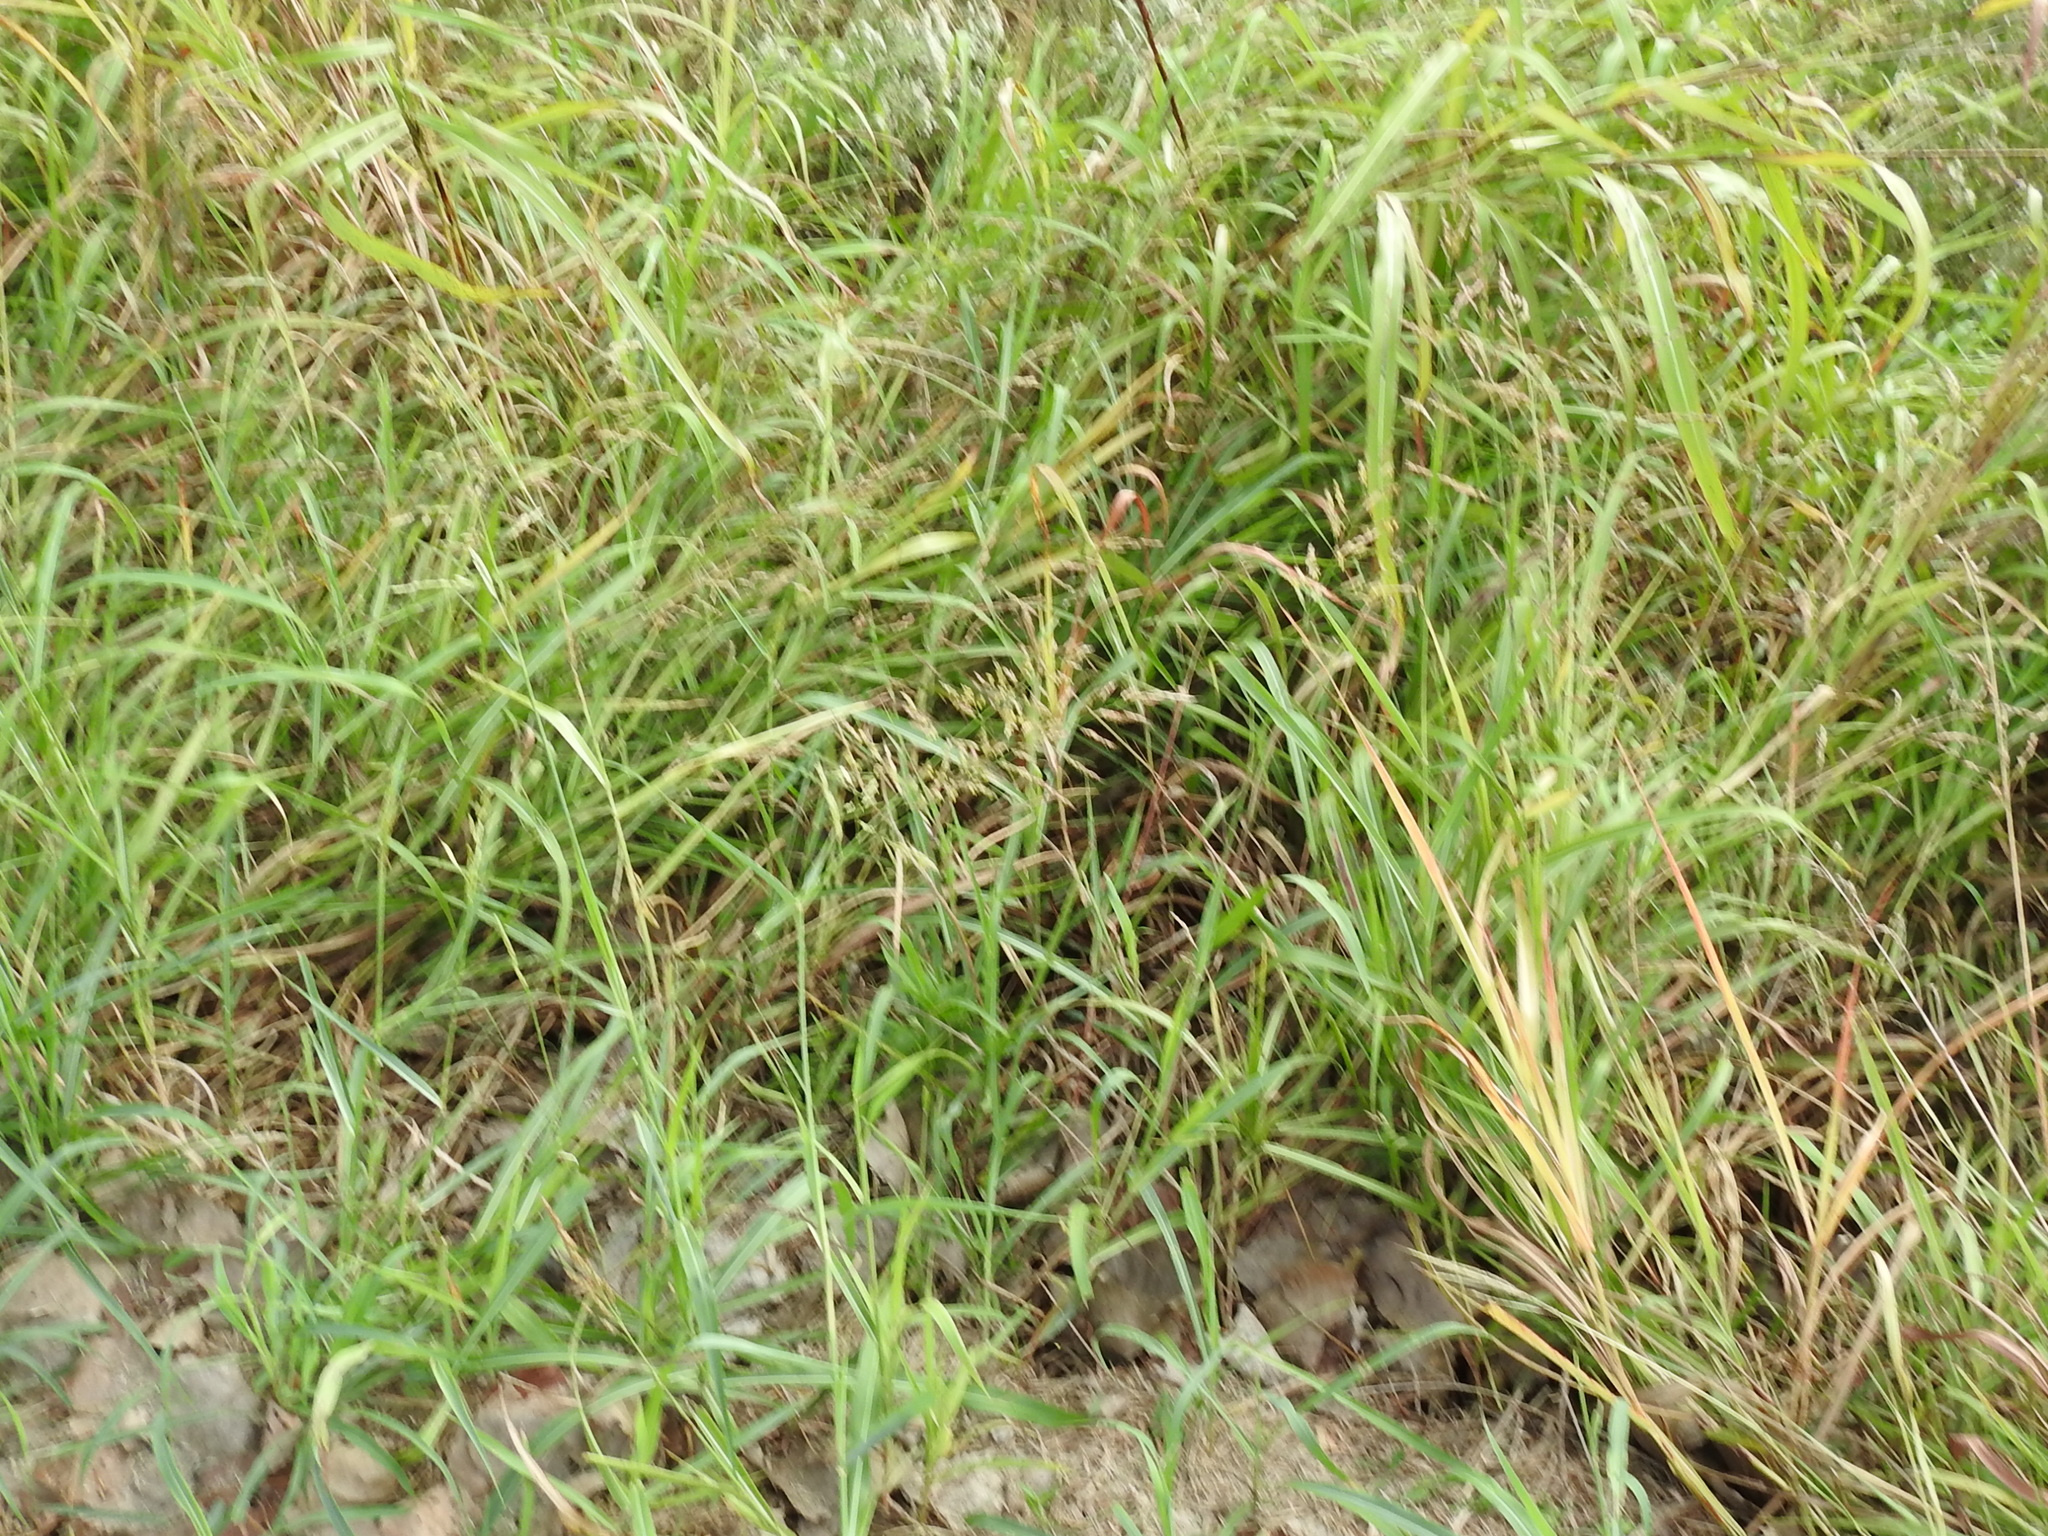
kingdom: Plantae
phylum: Tracheophyta
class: Liliopsida
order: Poales
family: Poaceae
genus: Sorghum
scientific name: Sorghum halepense
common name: Johnson-grass
